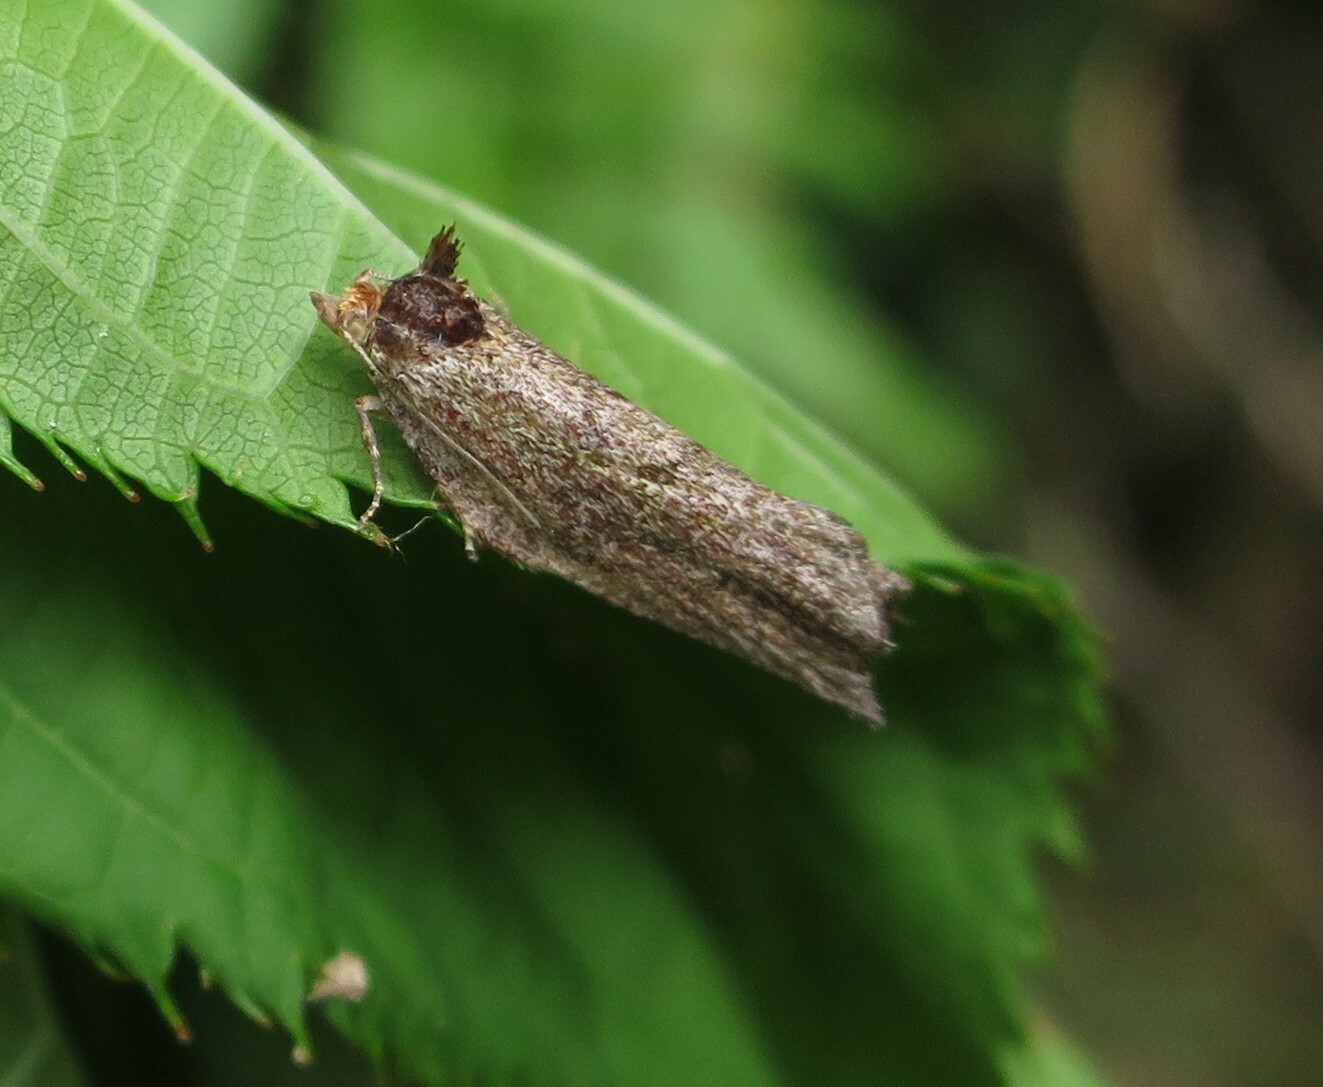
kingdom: Animalia
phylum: Arthropoda
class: Insecta
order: Lepidoptera
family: Tortricidae
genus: Epalxiphora
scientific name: Epalxiphora axenana
